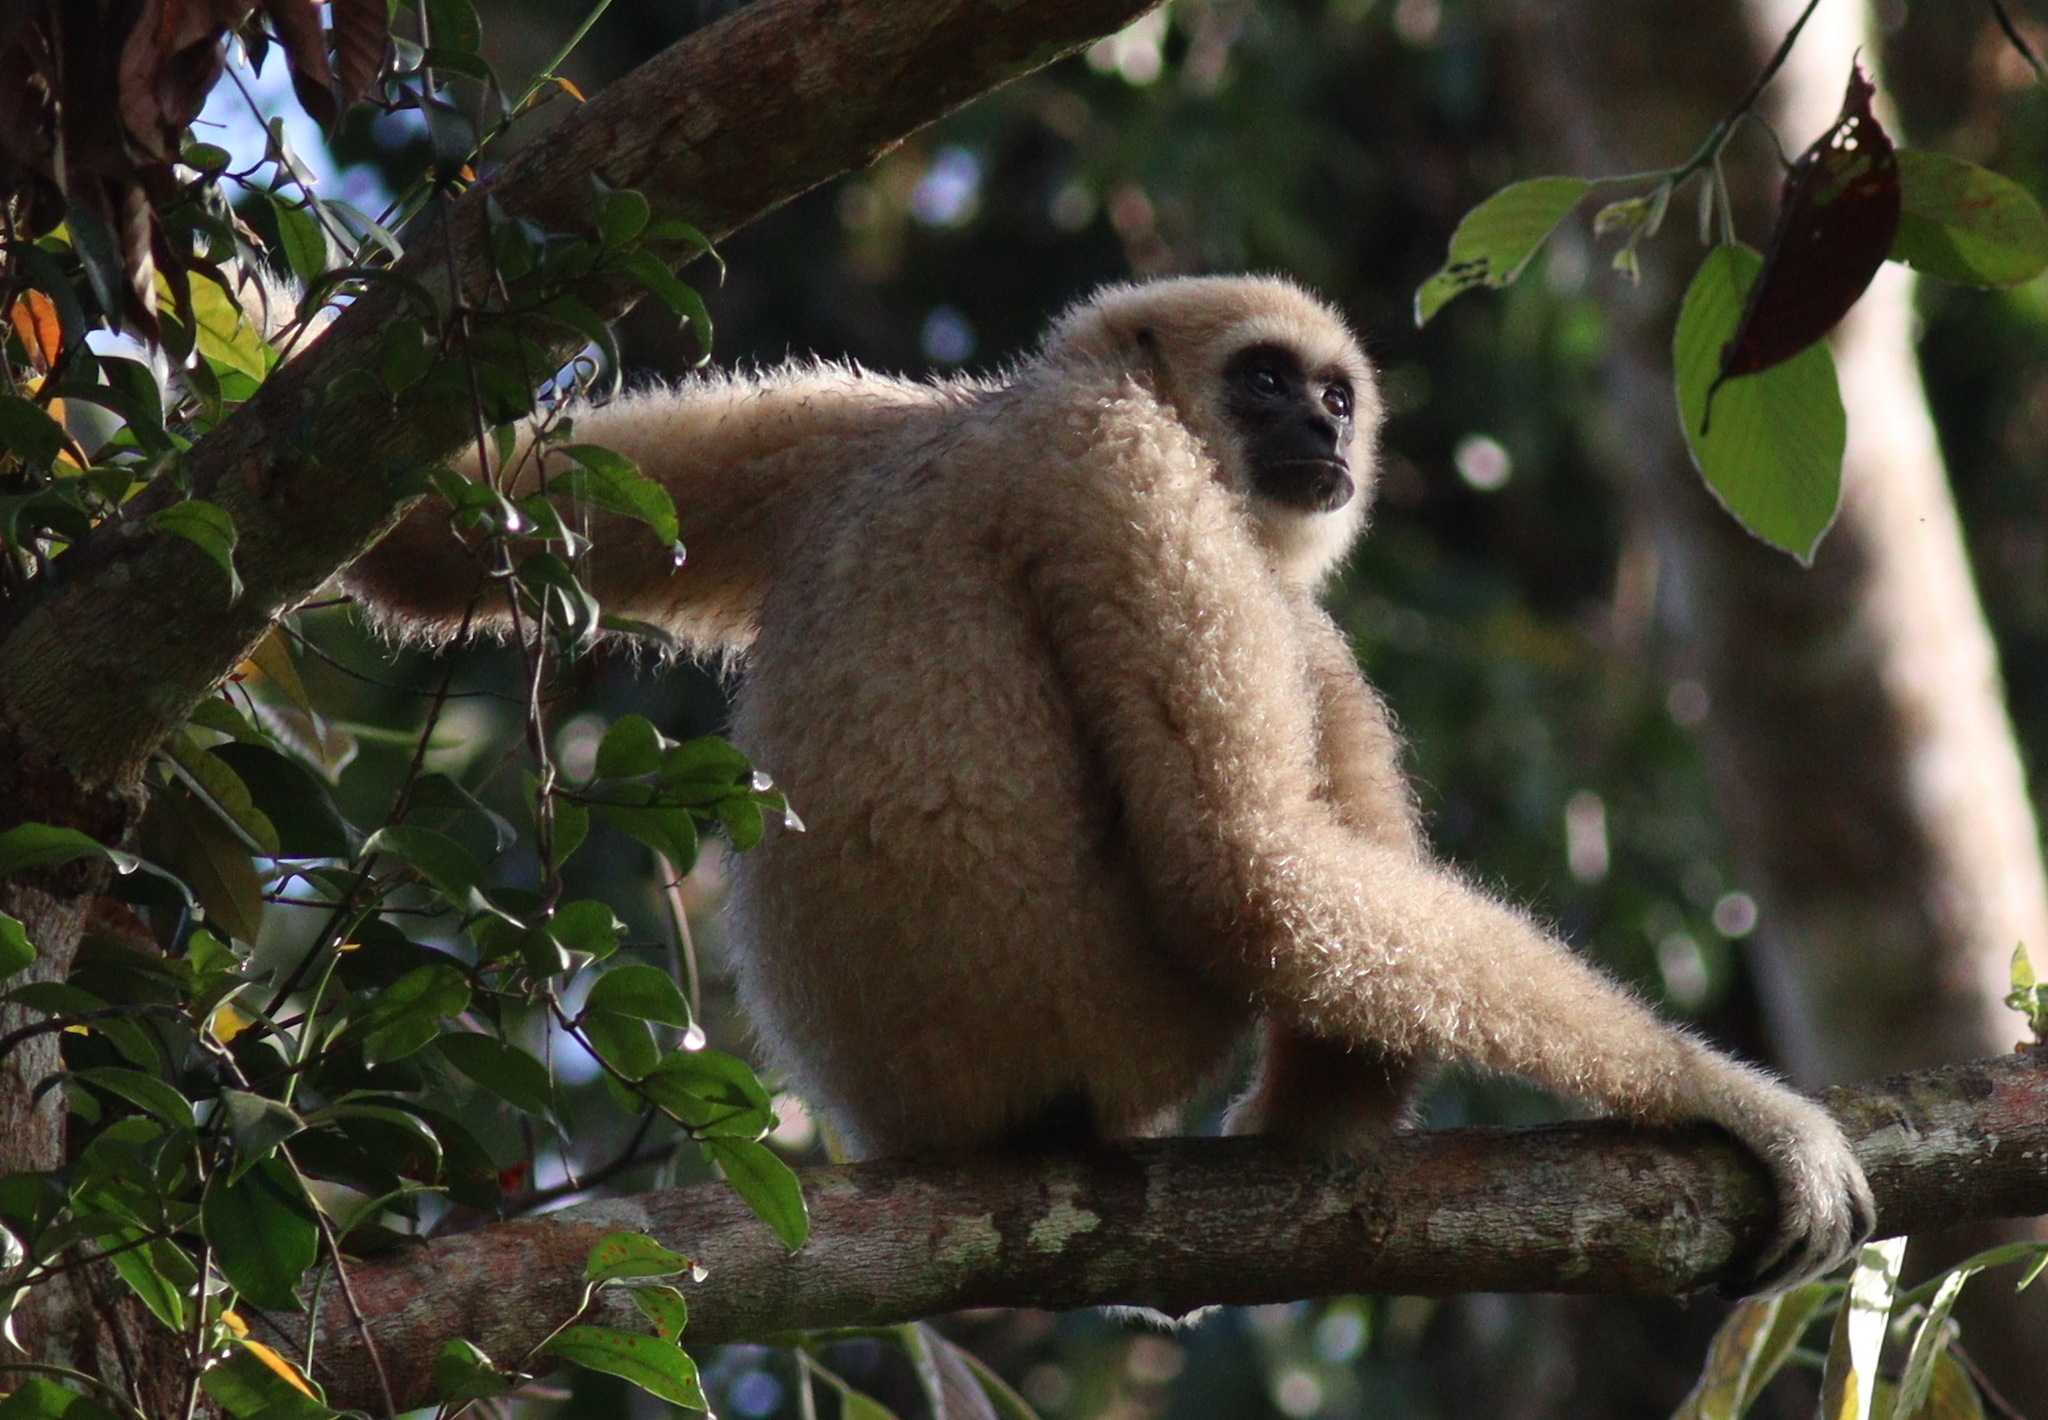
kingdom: Animalia
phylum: Chordata
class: Mammalia
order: Primates
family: Hylobatidae
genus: Hylobates
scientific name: Hylobates lar
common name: Lar gibbon
